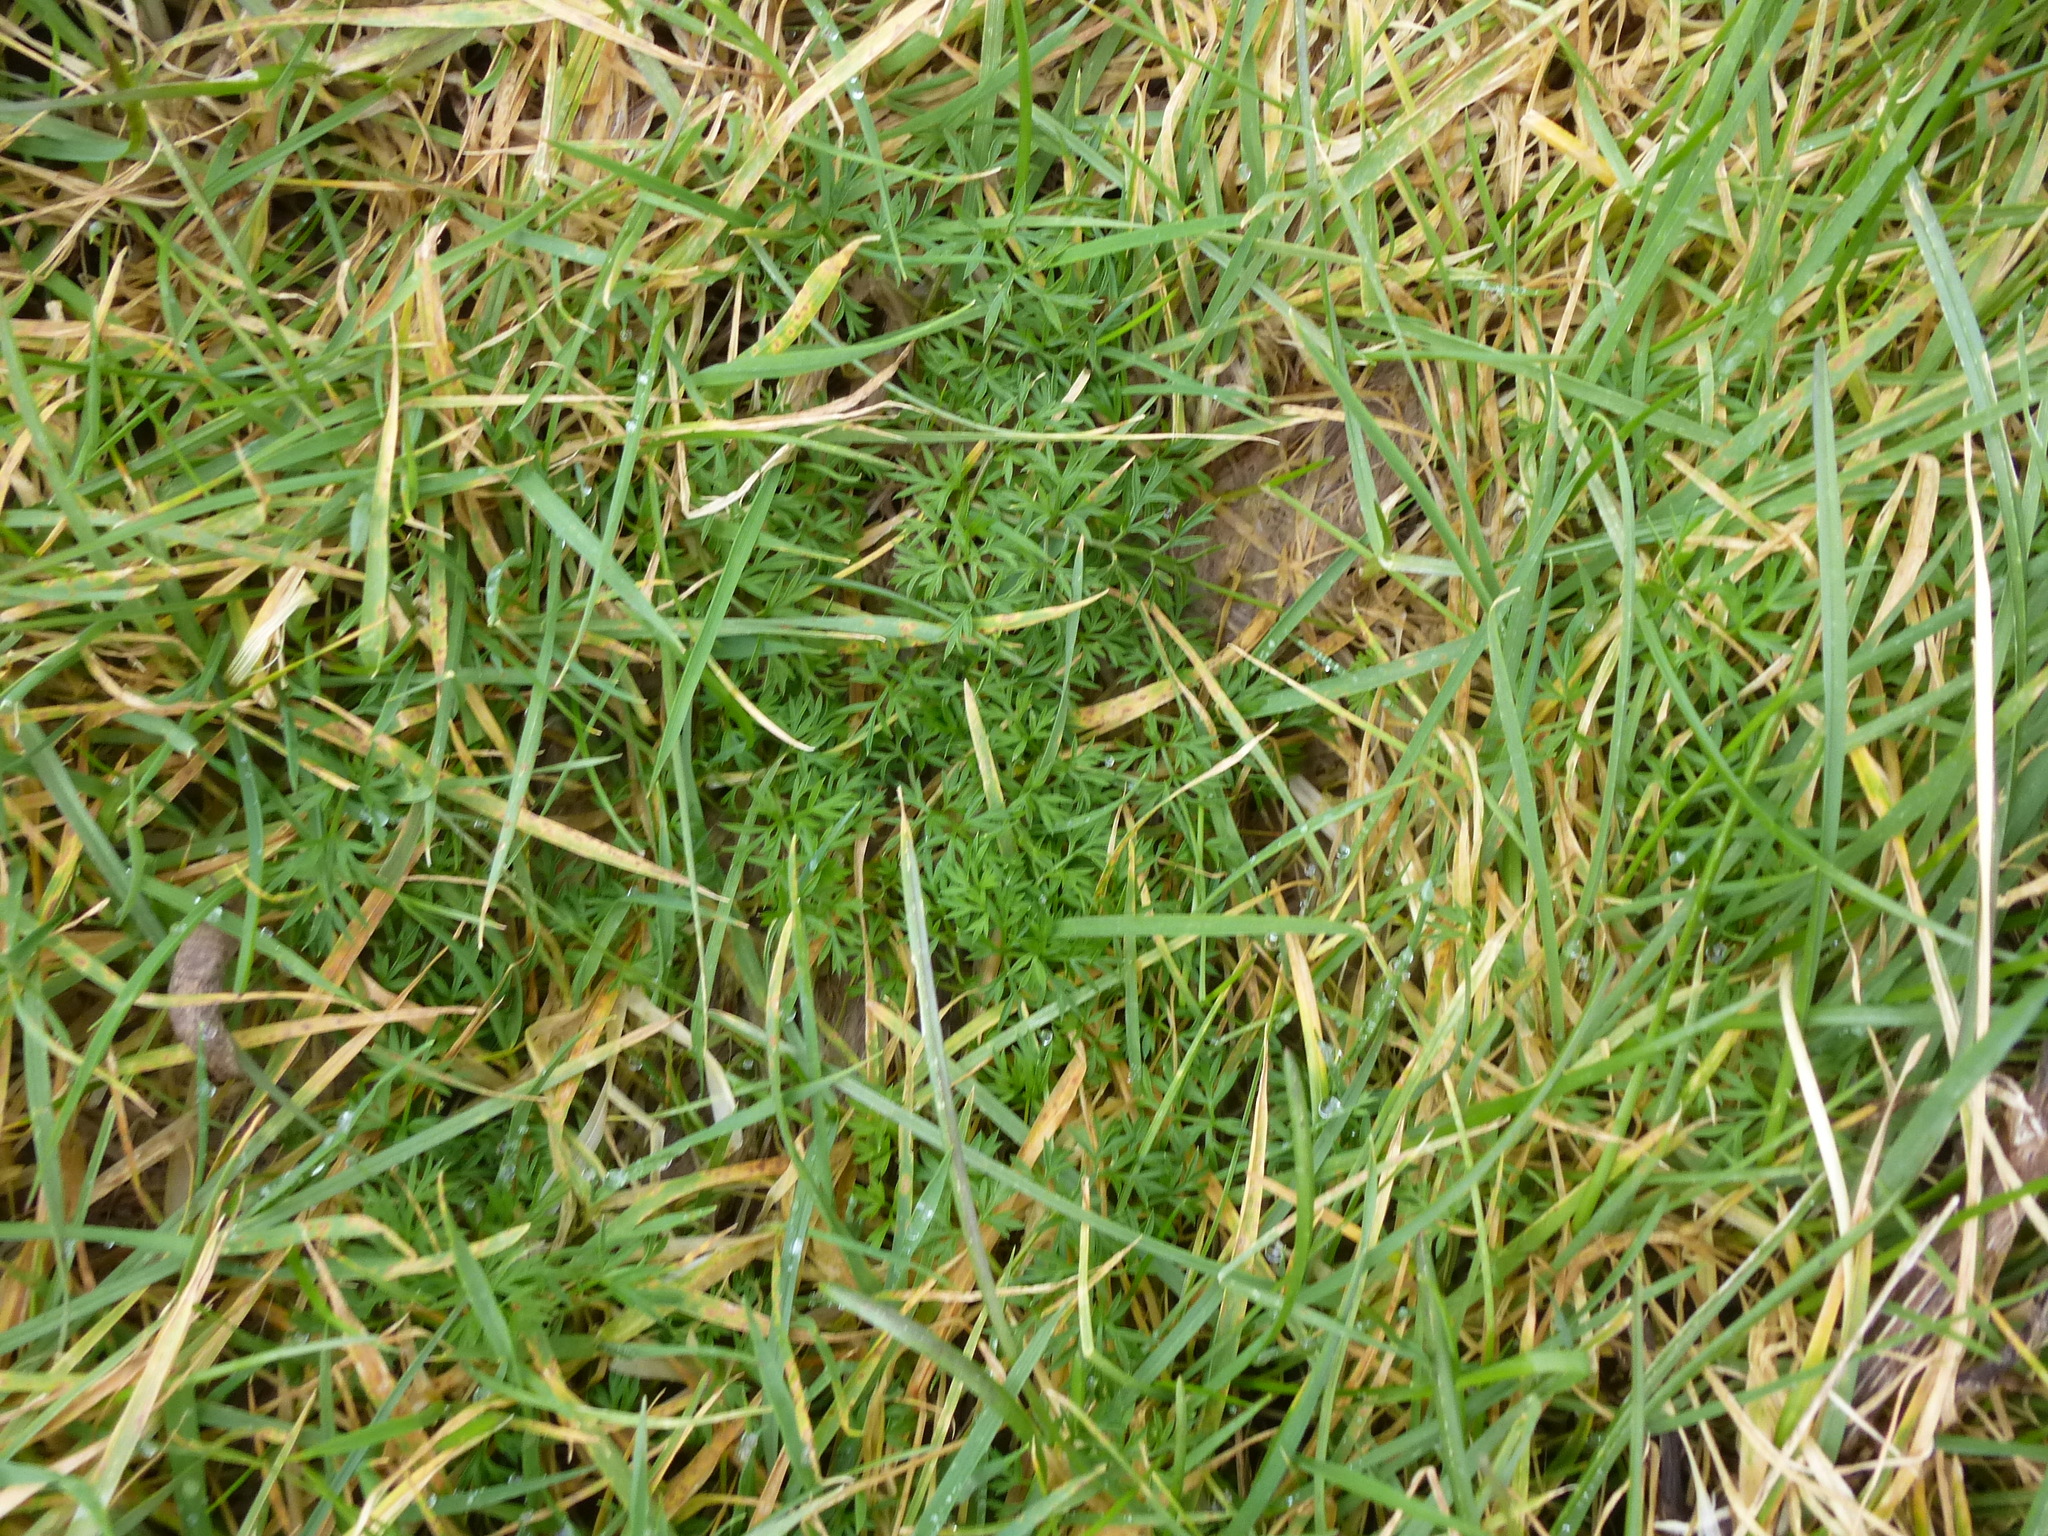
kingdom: Plantae
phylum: Tracheophyta
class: Magnoliopsida
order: Apiales
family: Apiaceae
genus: Conopodium
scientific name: Conopodium majus
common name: Pignut
